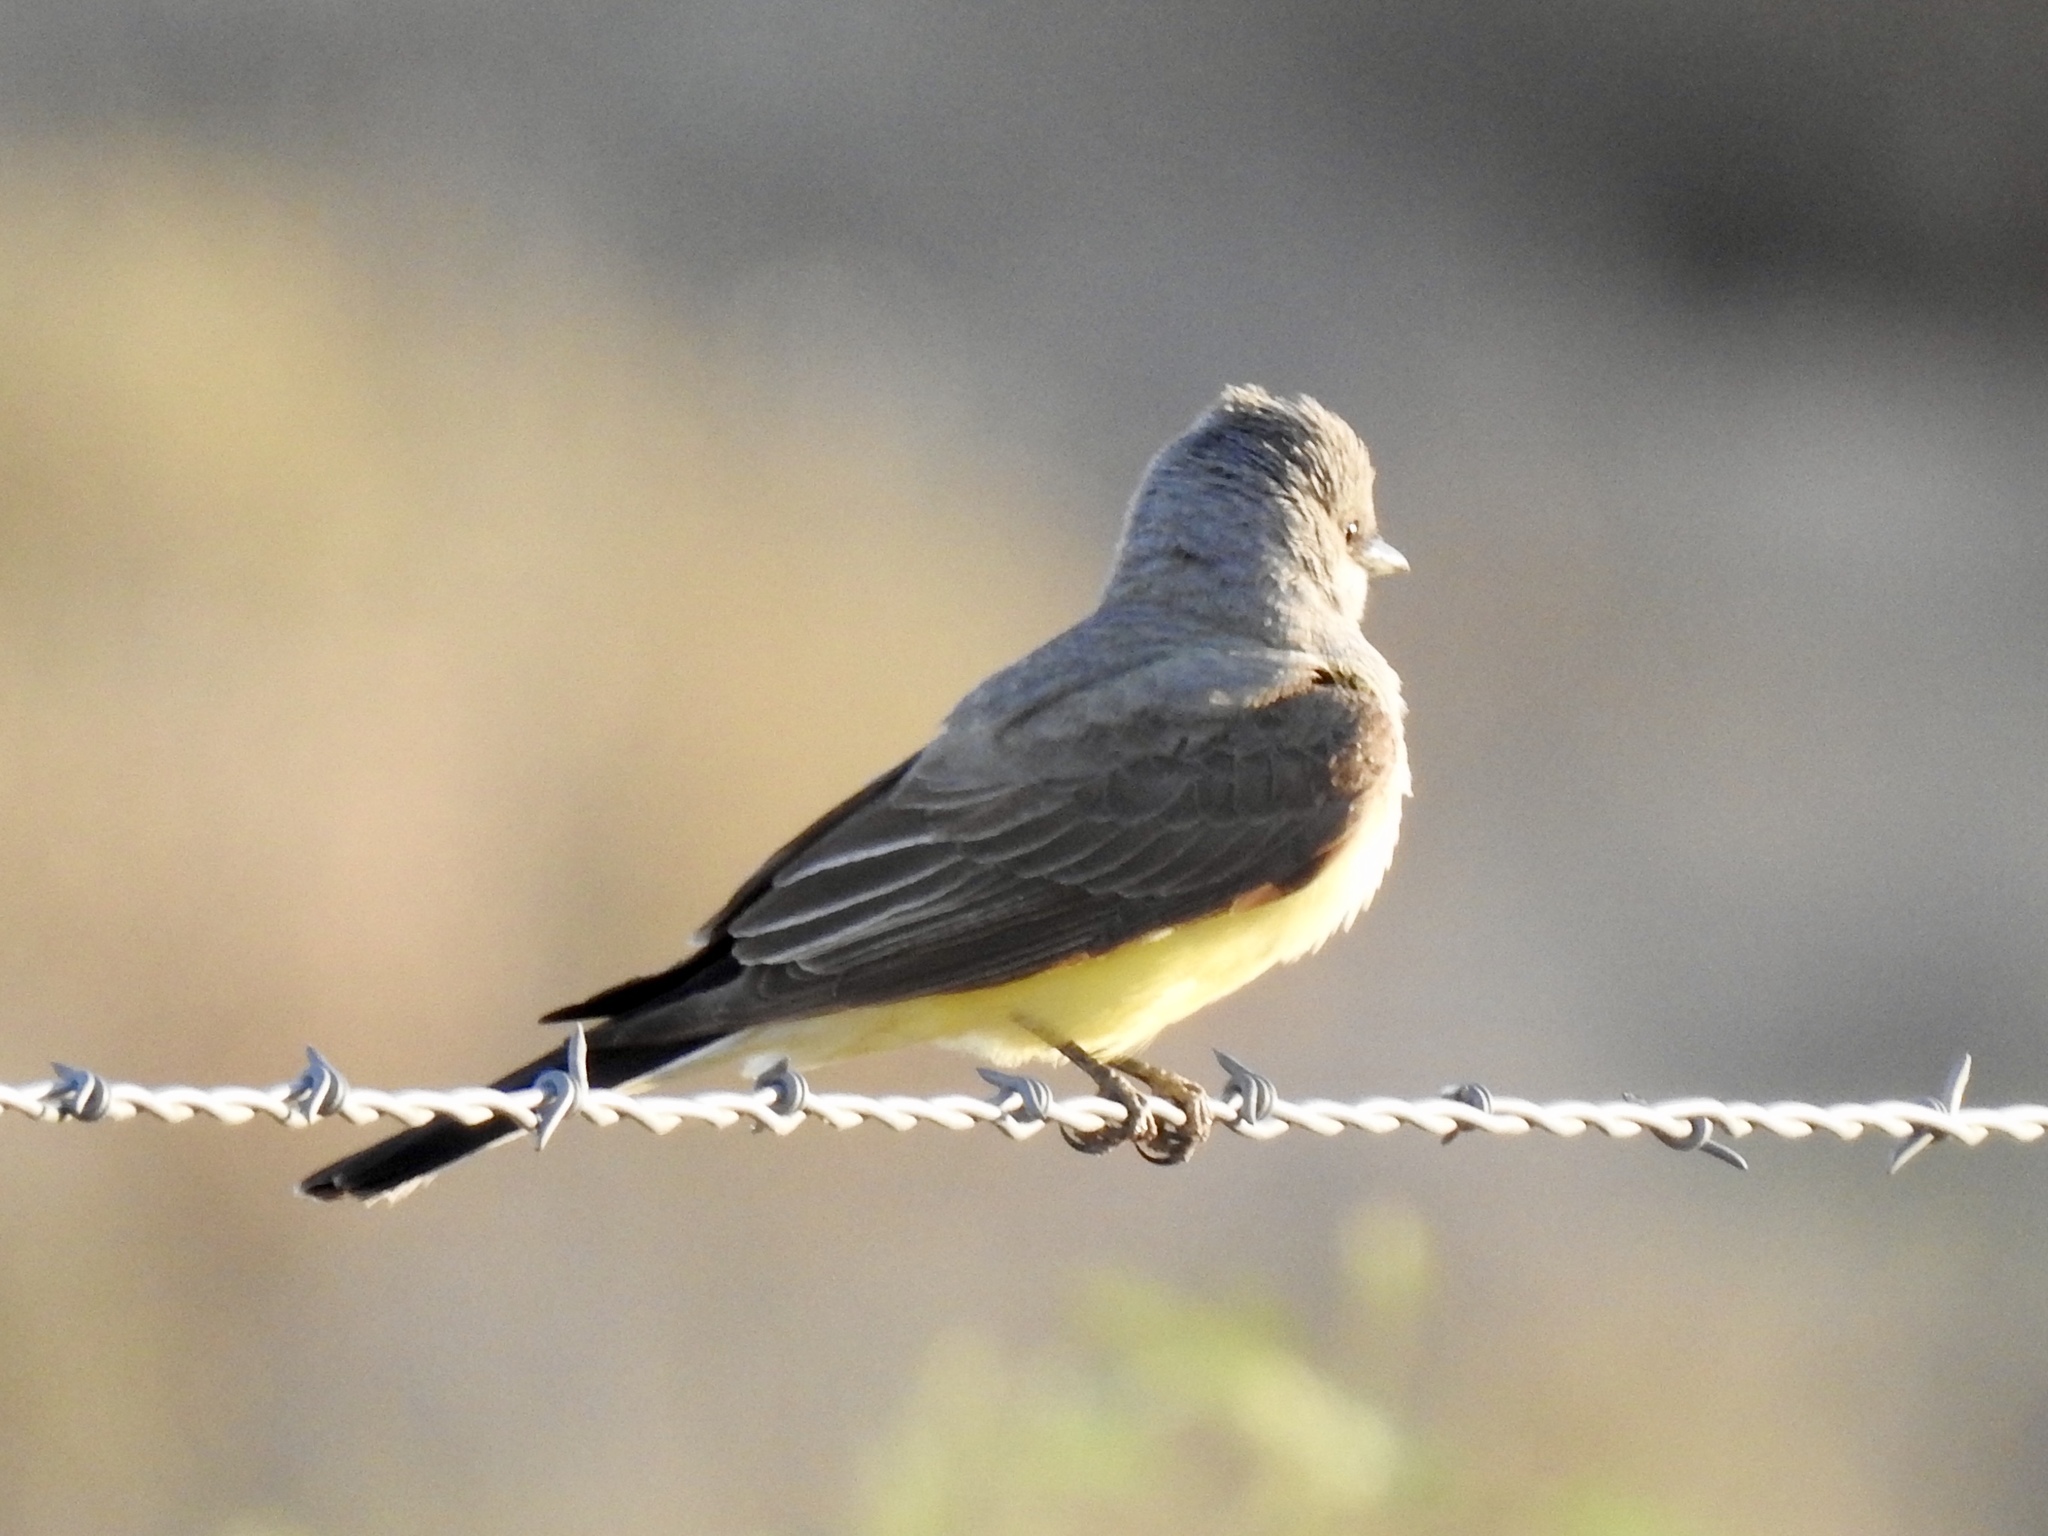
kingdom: Animalia
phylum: Chordata
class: Aves
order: Passeriformes
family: Tyrannidae
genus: Tyrannus
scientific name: Tyrannus verticalis
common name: Western kingbird
